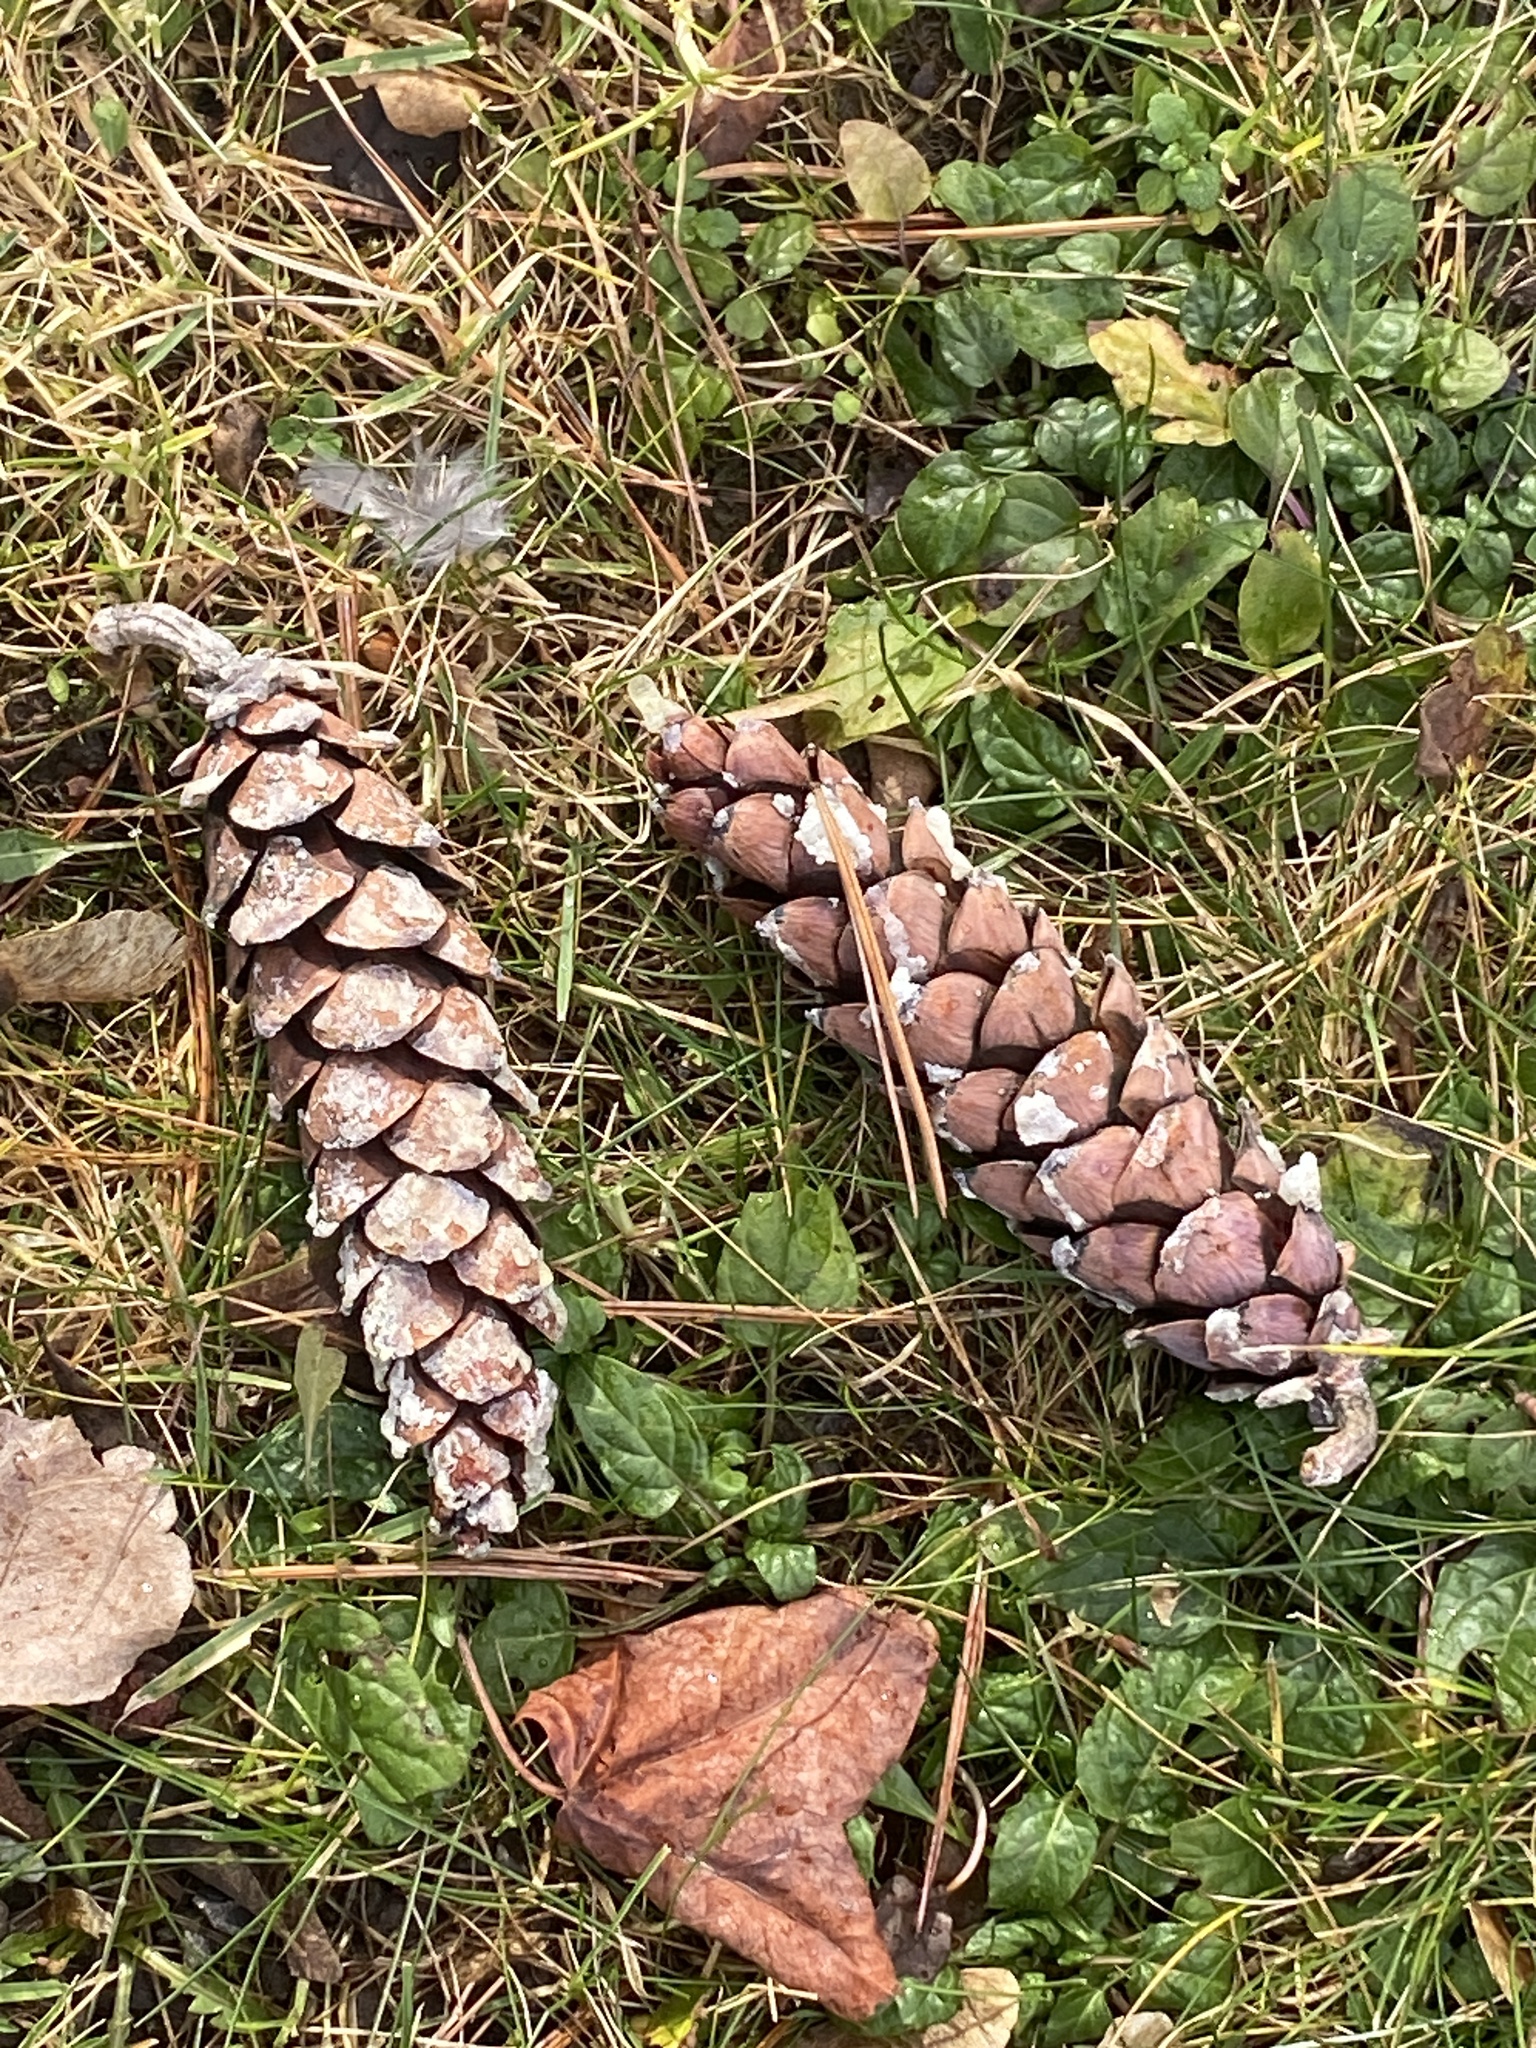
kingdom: Plantae
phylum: Tracheophyta
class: Pinopsida
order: Pinales
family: Pinaceae
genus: Pinus
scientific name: Pinus strobus
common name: Weymouth pine
